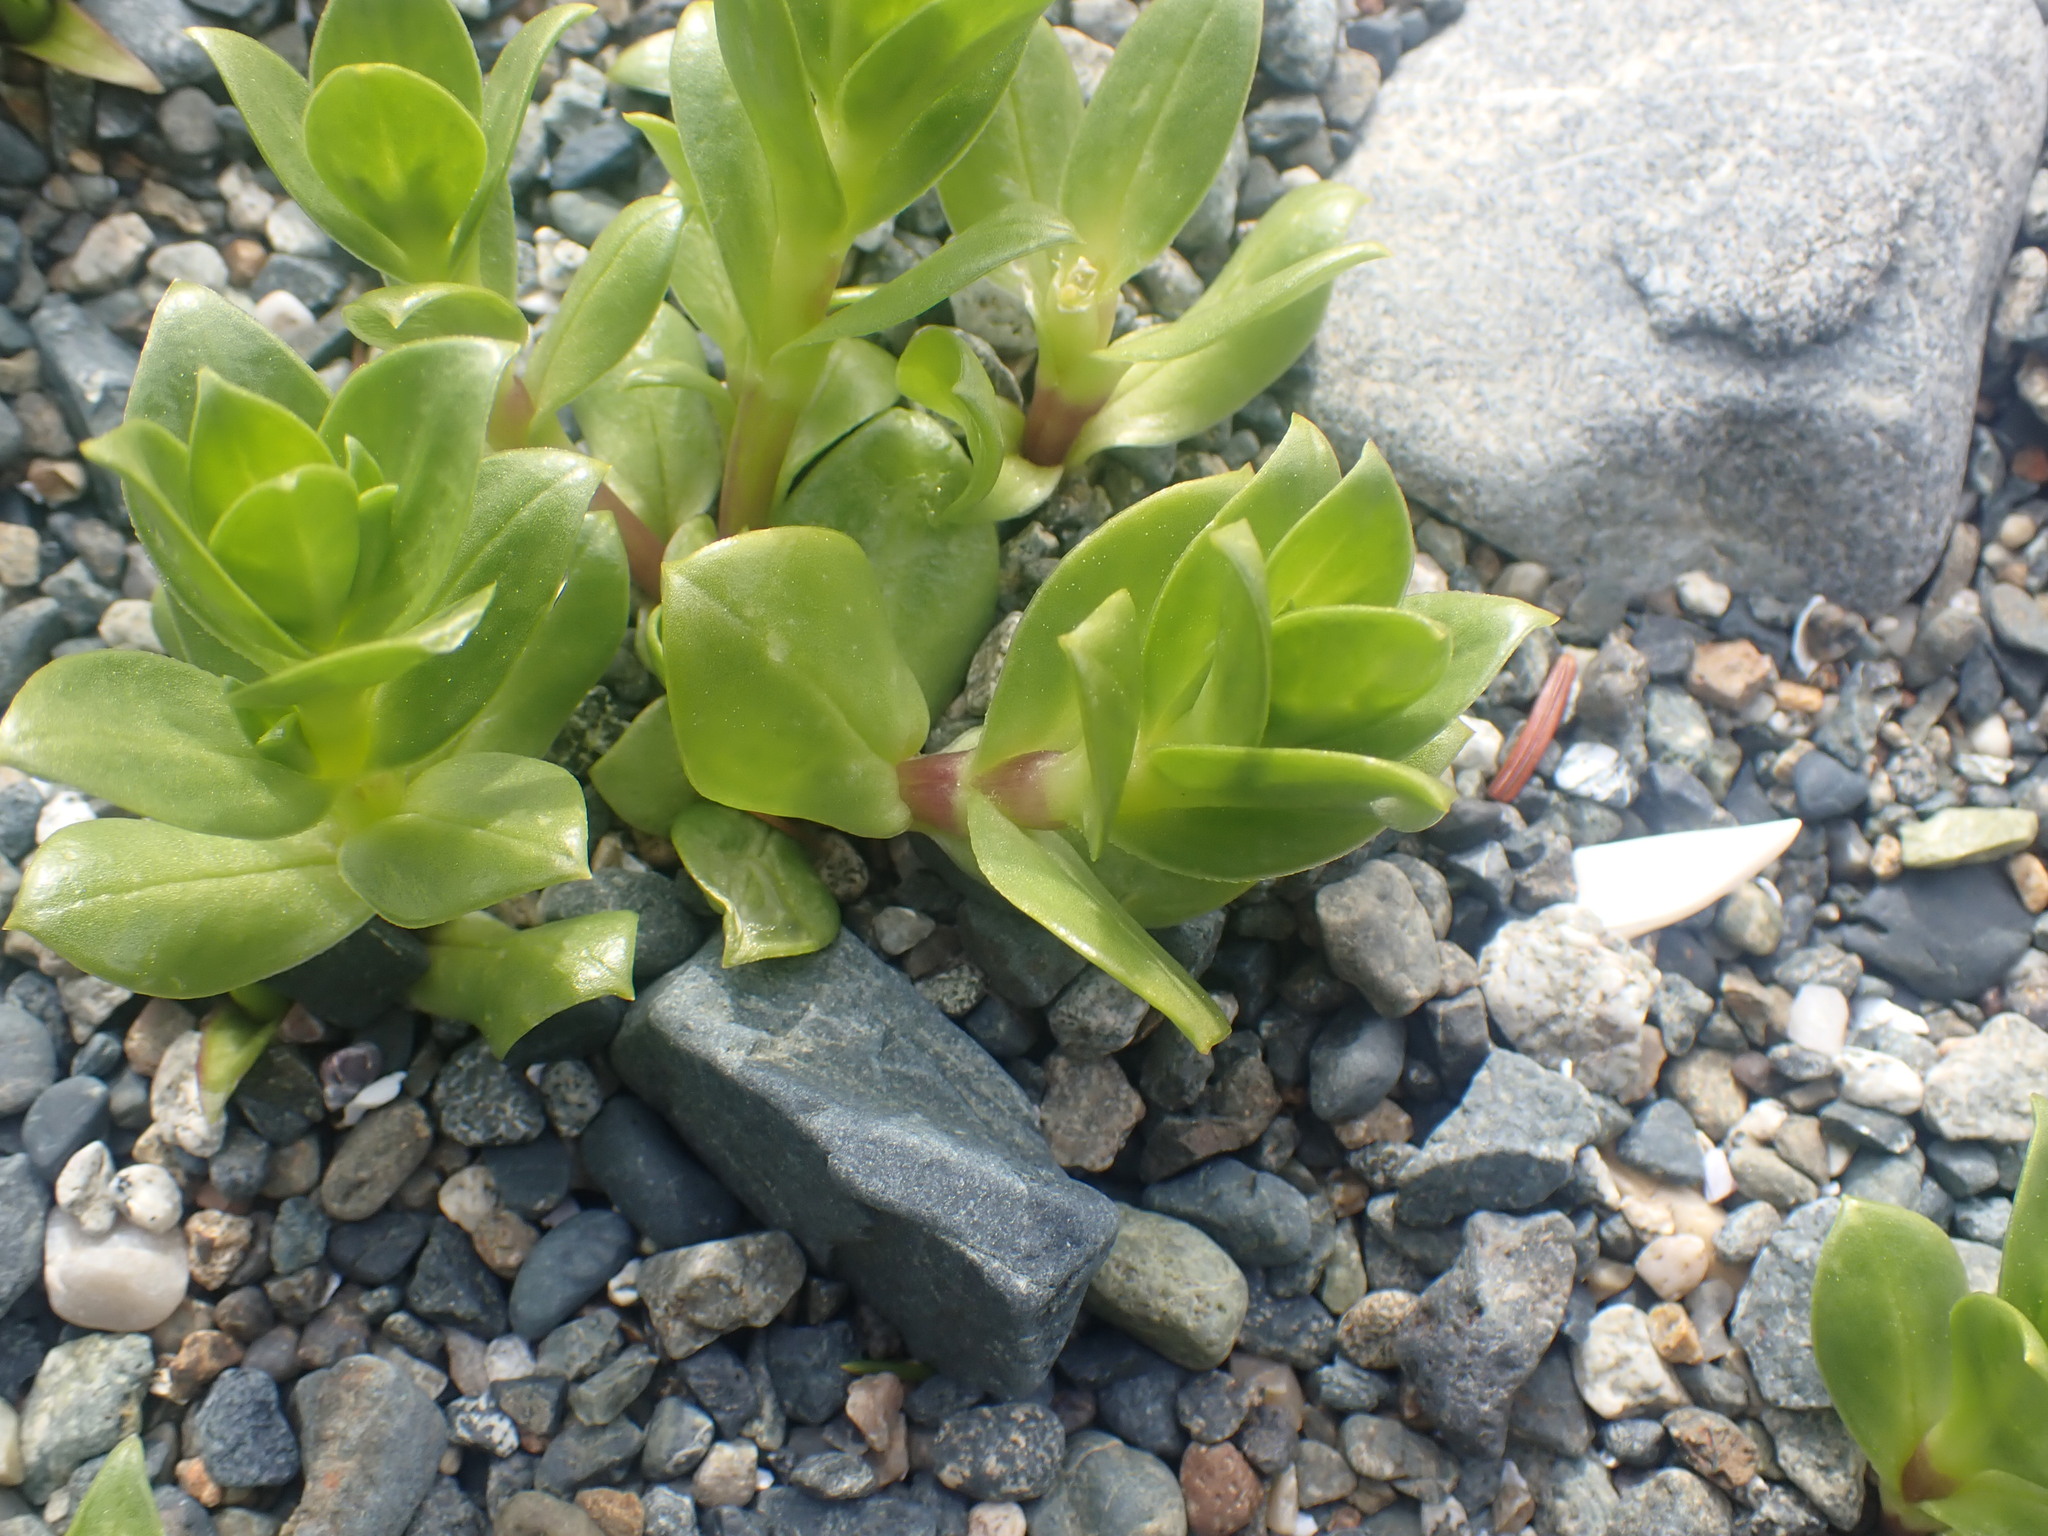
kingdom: Plantae
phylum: Tracheophyta
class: Magnoliopsida
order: Caryophyllales
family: Caryophyllaceae
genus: Honckenya
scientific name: Honckenya peploides
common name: Sea sandwort
